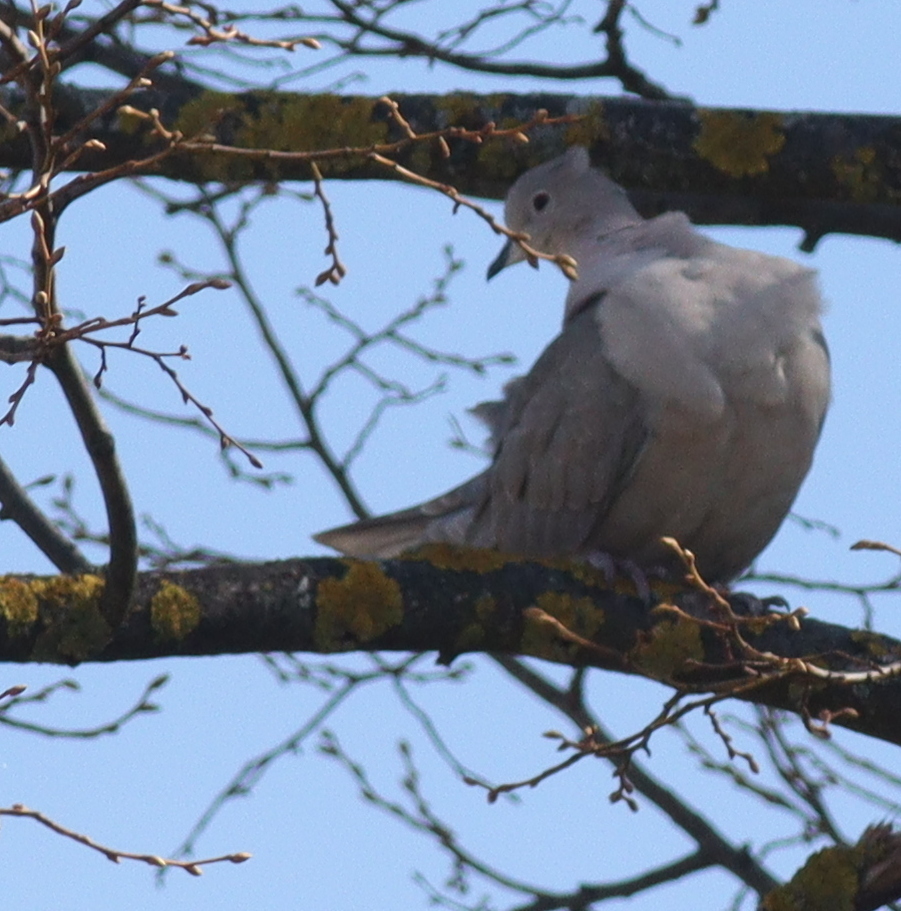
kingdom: Animalia
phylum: Chordata
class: Aves
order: Columbiformes
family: Columbidae
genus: Streptopelia
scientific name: Streptopelia decaocto
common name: Eurasian collared dove
